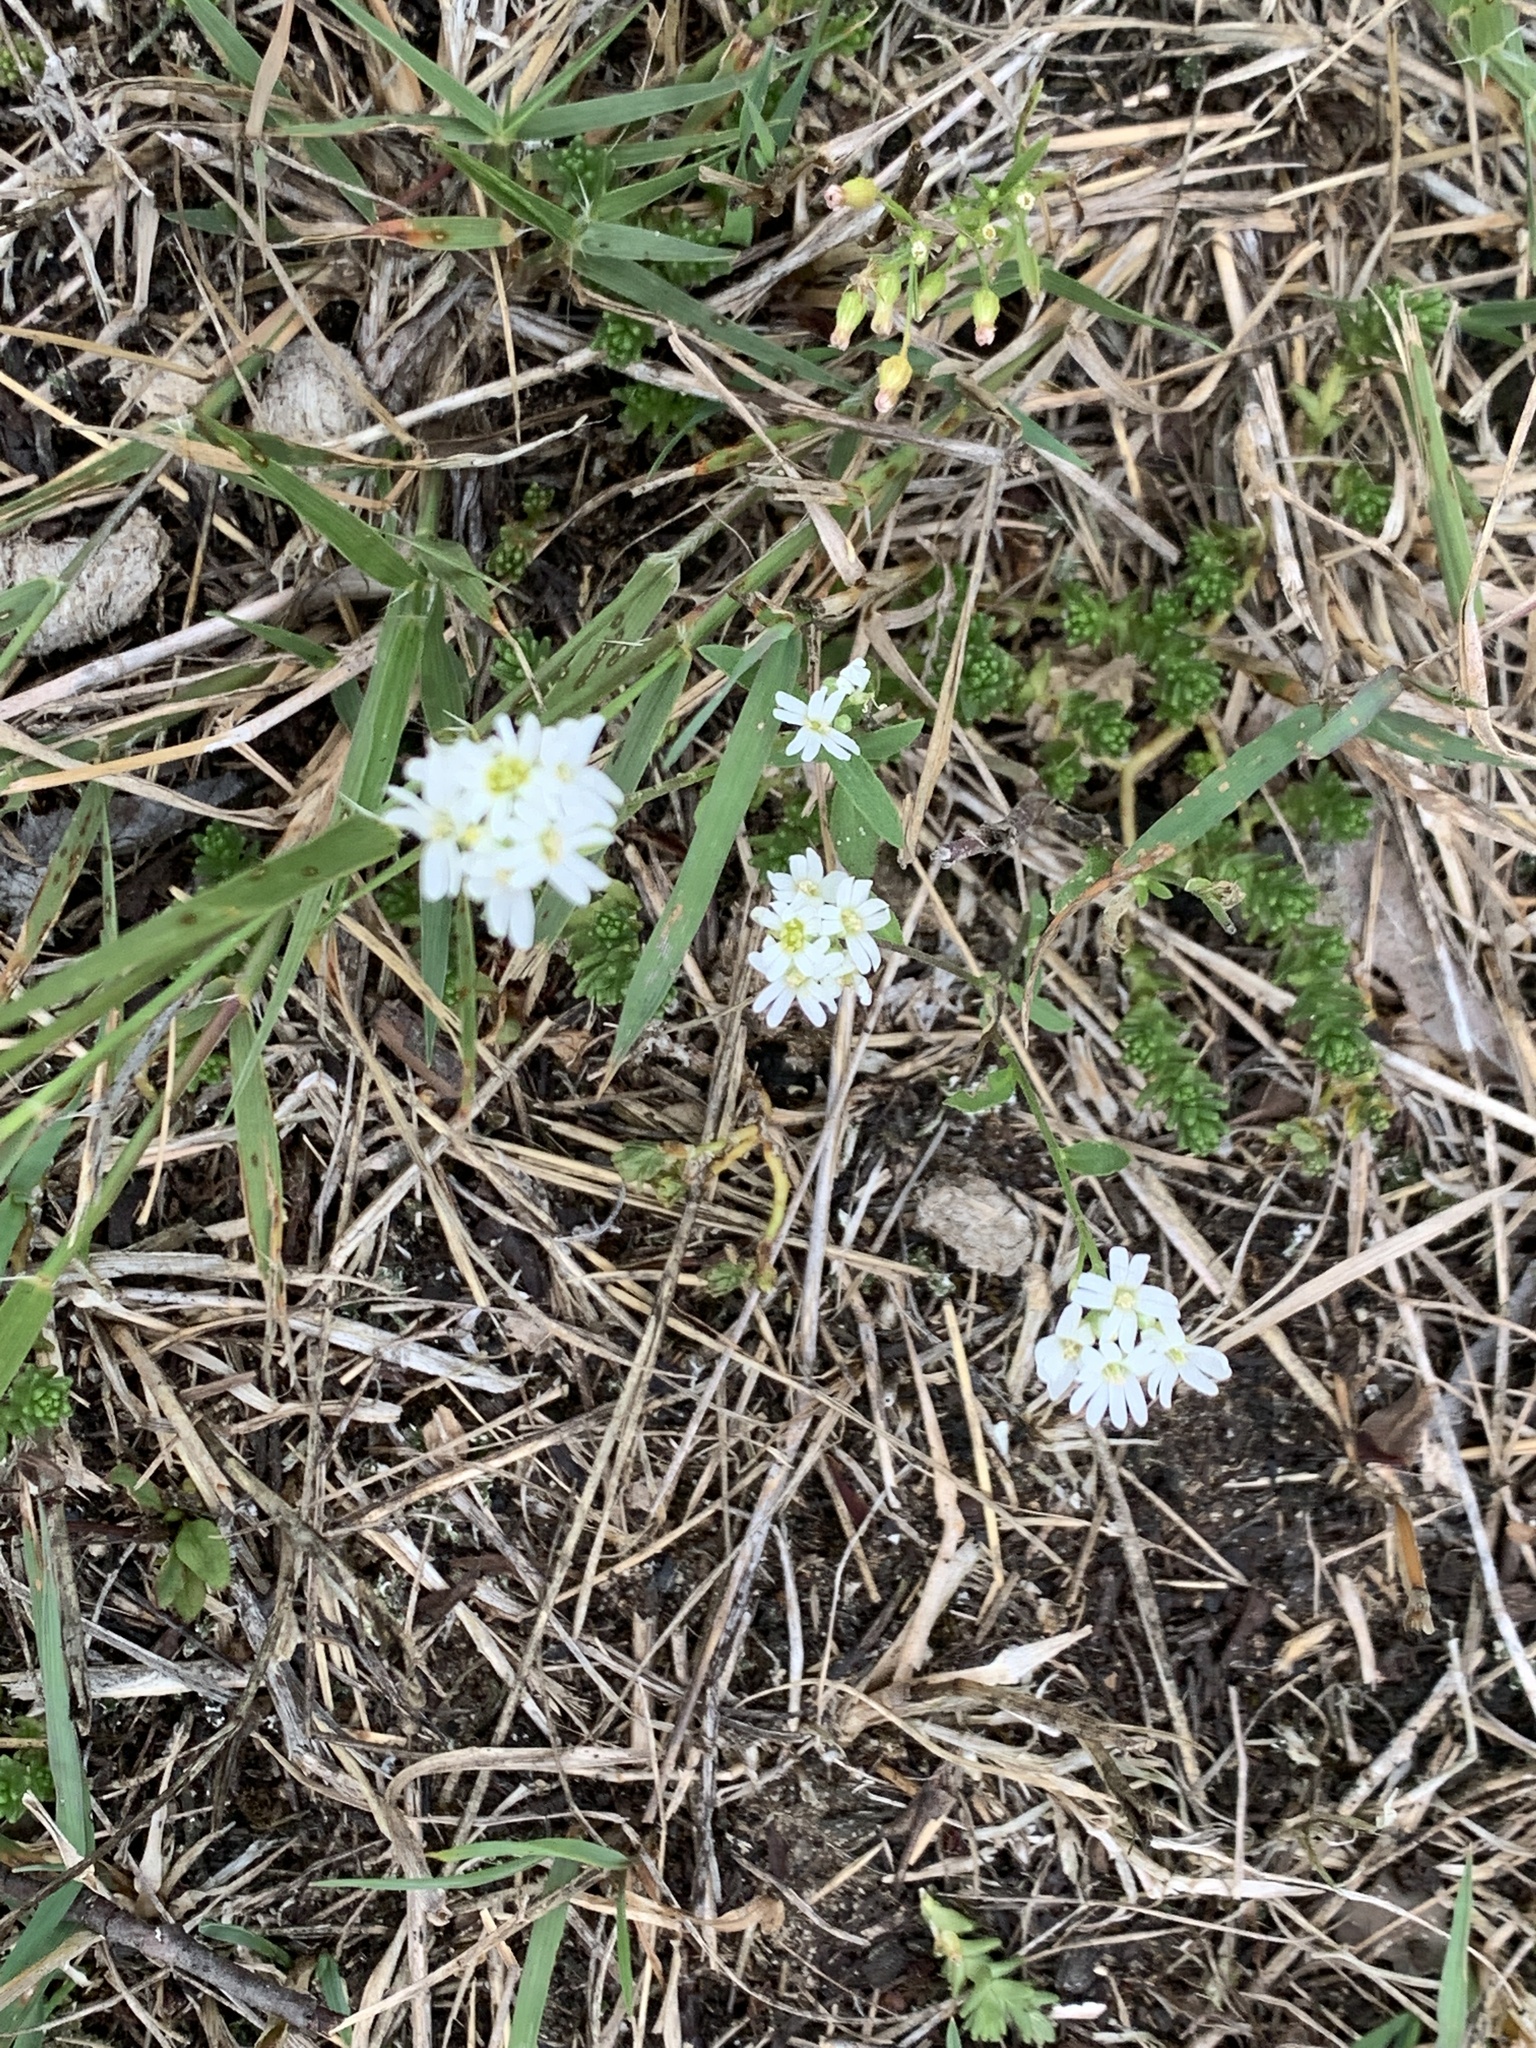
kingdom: Plantae
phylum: Tracheophyta
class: Magnoliopsida
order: Brassicales
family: Brassicaceae
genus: Berteroa
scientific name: Berteroa incana
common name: Hoary alison
